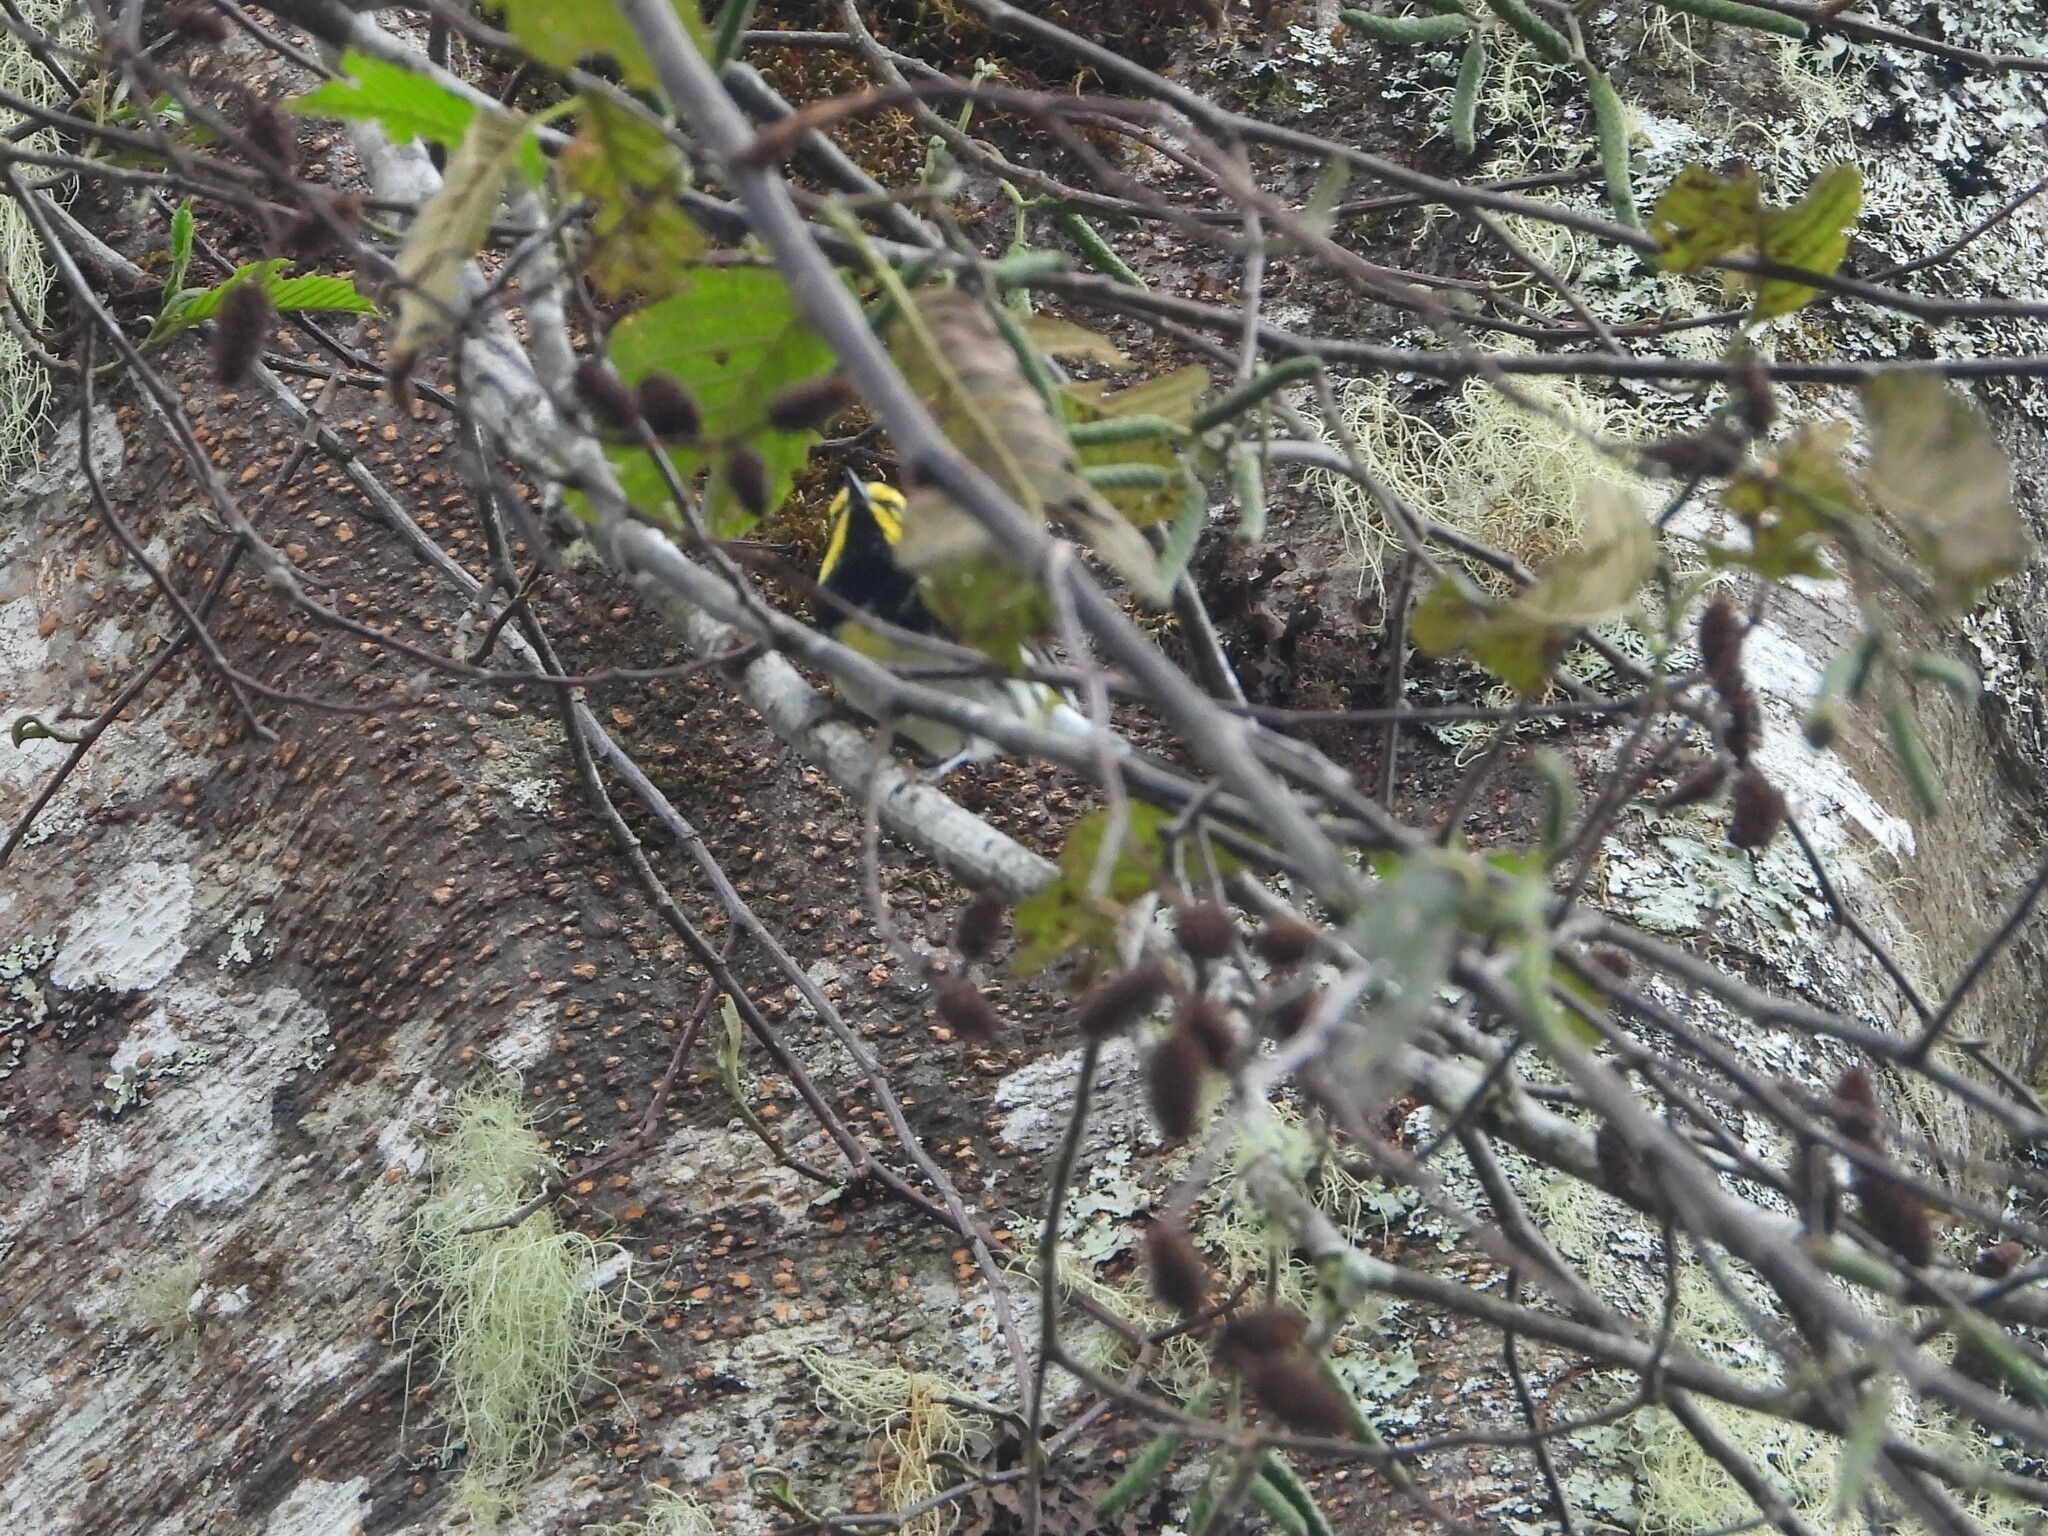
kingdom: Animalia
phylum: Chordata
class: Aves
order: Passeriformes
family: Parulidae
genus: Setophaga
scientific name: Setophaga townsendi
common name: Townsend's warbler
